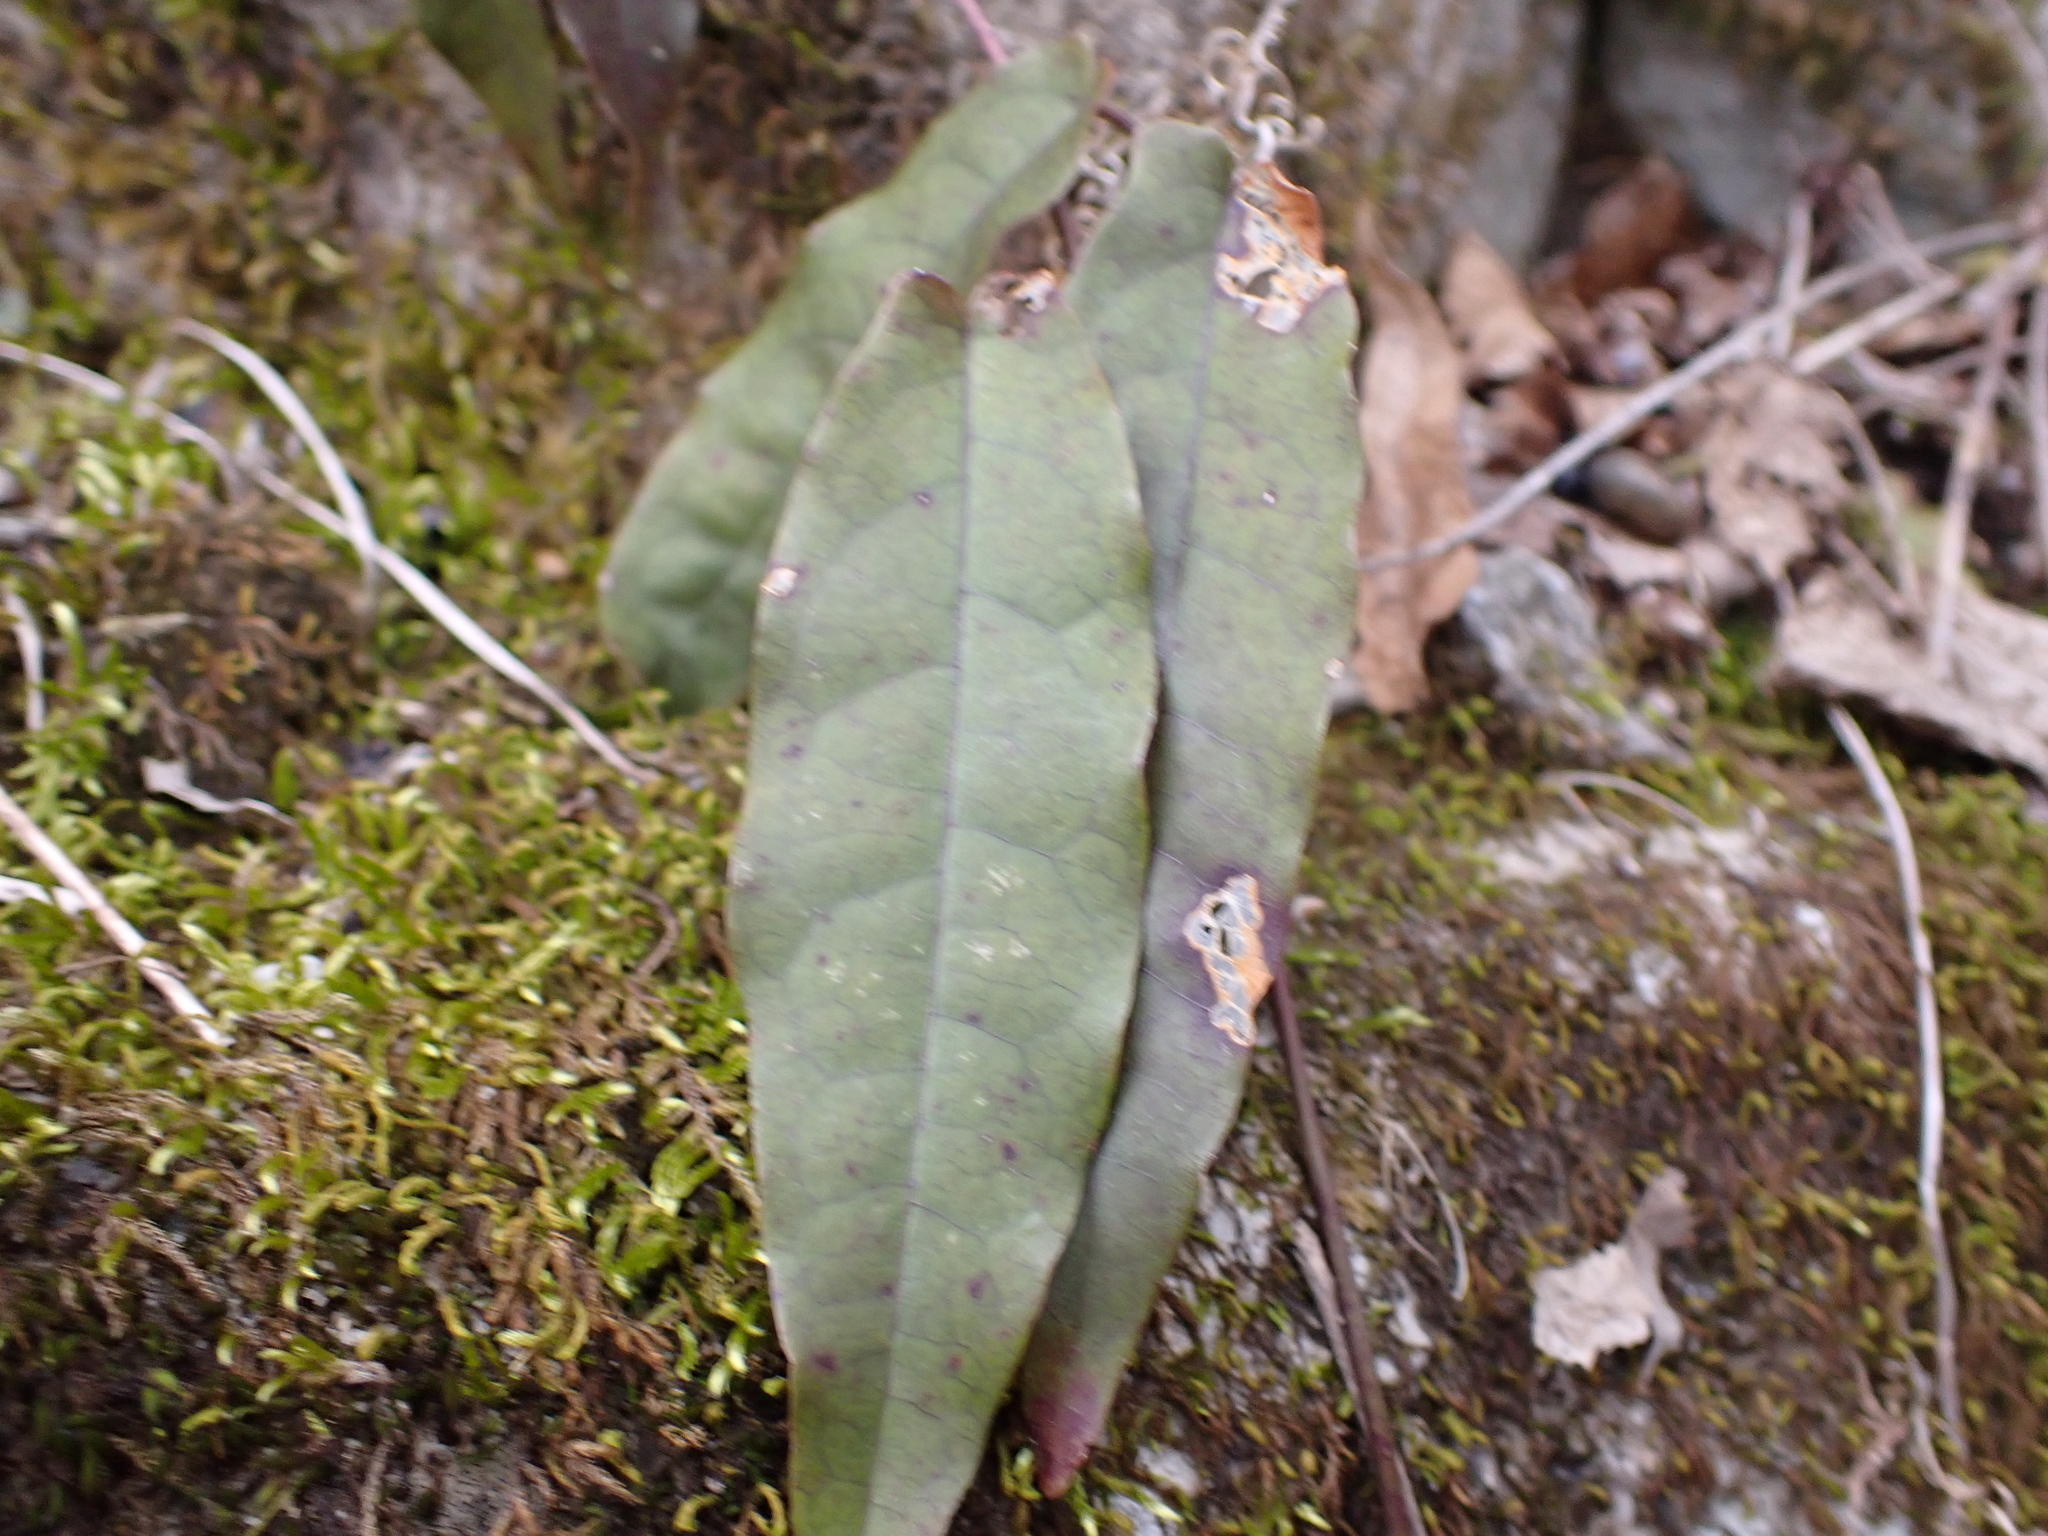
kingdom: Plantae
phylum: Tracheophyta
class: Magnoliopsida
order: Lamiales
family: Bignoniaceae
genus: Bignonia
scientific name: Bignonia capreolata
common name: Crossvine
